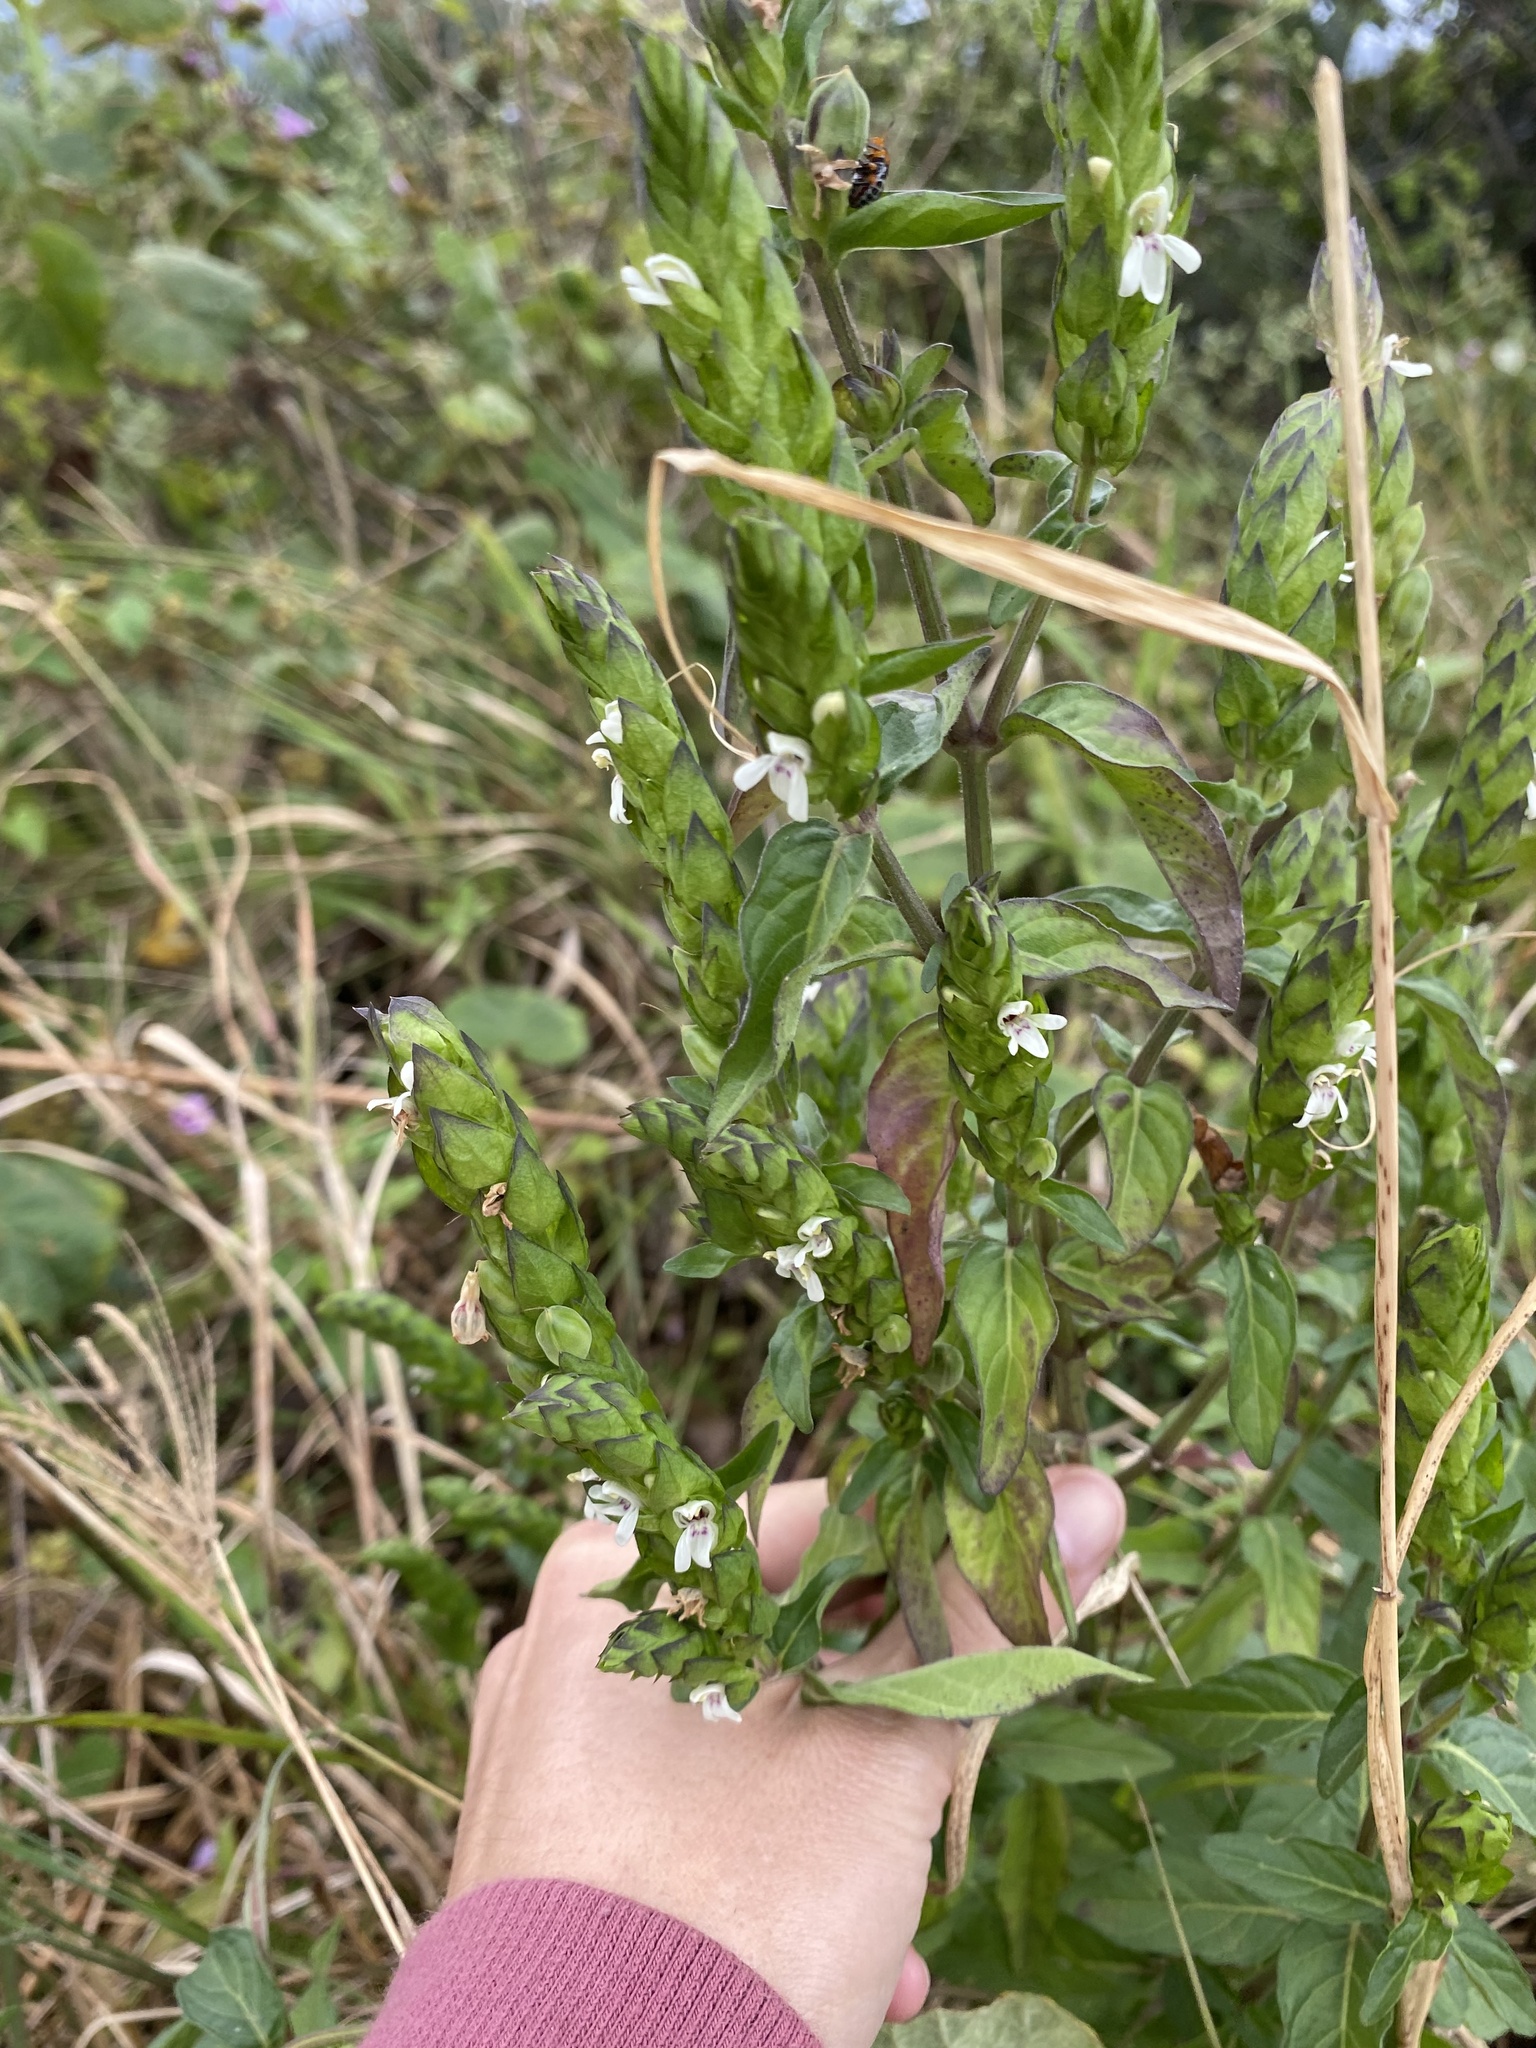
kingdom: Plantae
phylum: Tracheophyta
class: Magnoliopsida
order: Lamiales
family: Acanthaceae
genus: Justicia
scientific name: Justicia betonica
